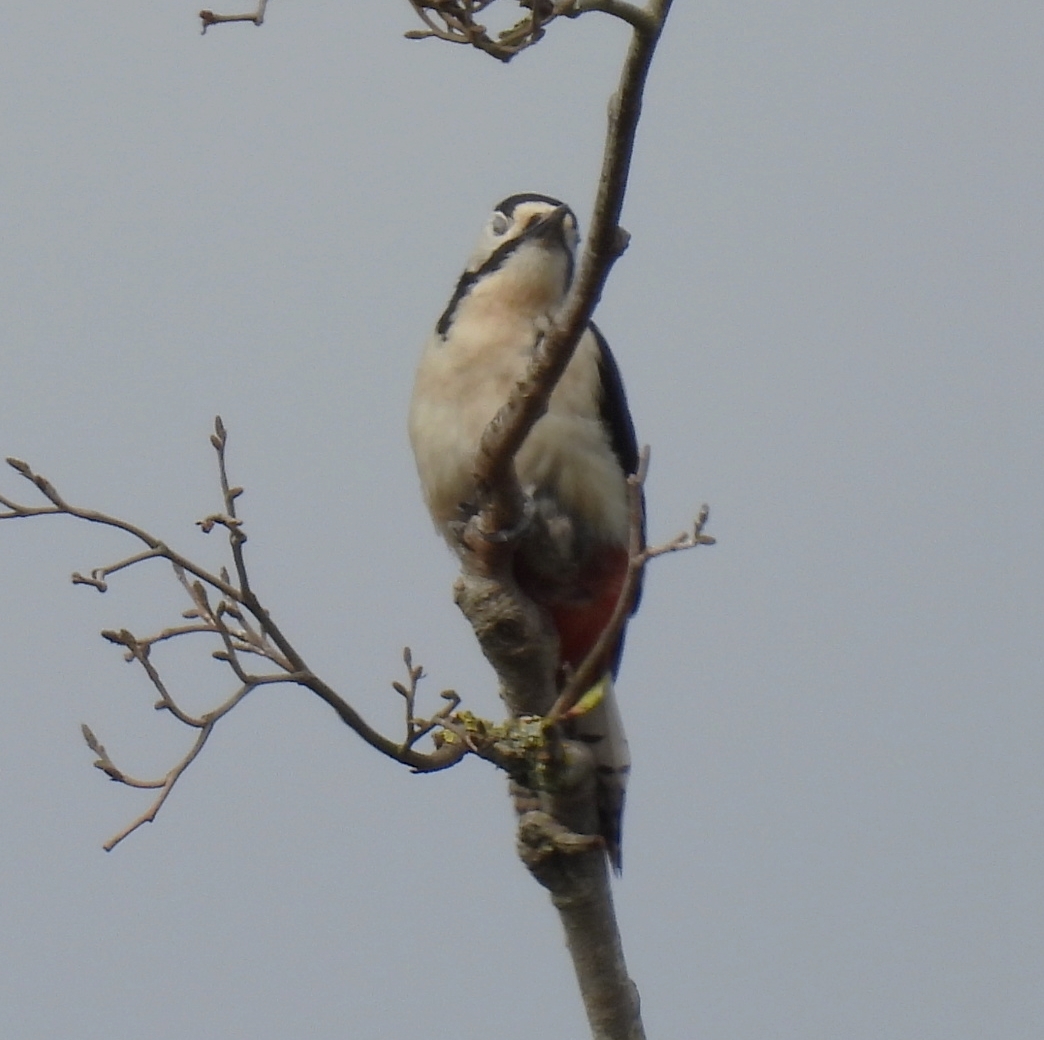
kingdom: Animalia
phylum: Chordata
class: Aves
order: Piciformes
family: Picidae
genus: Dendrocopos
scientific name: Dendrocopos major
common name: Great spotted woodpecker
